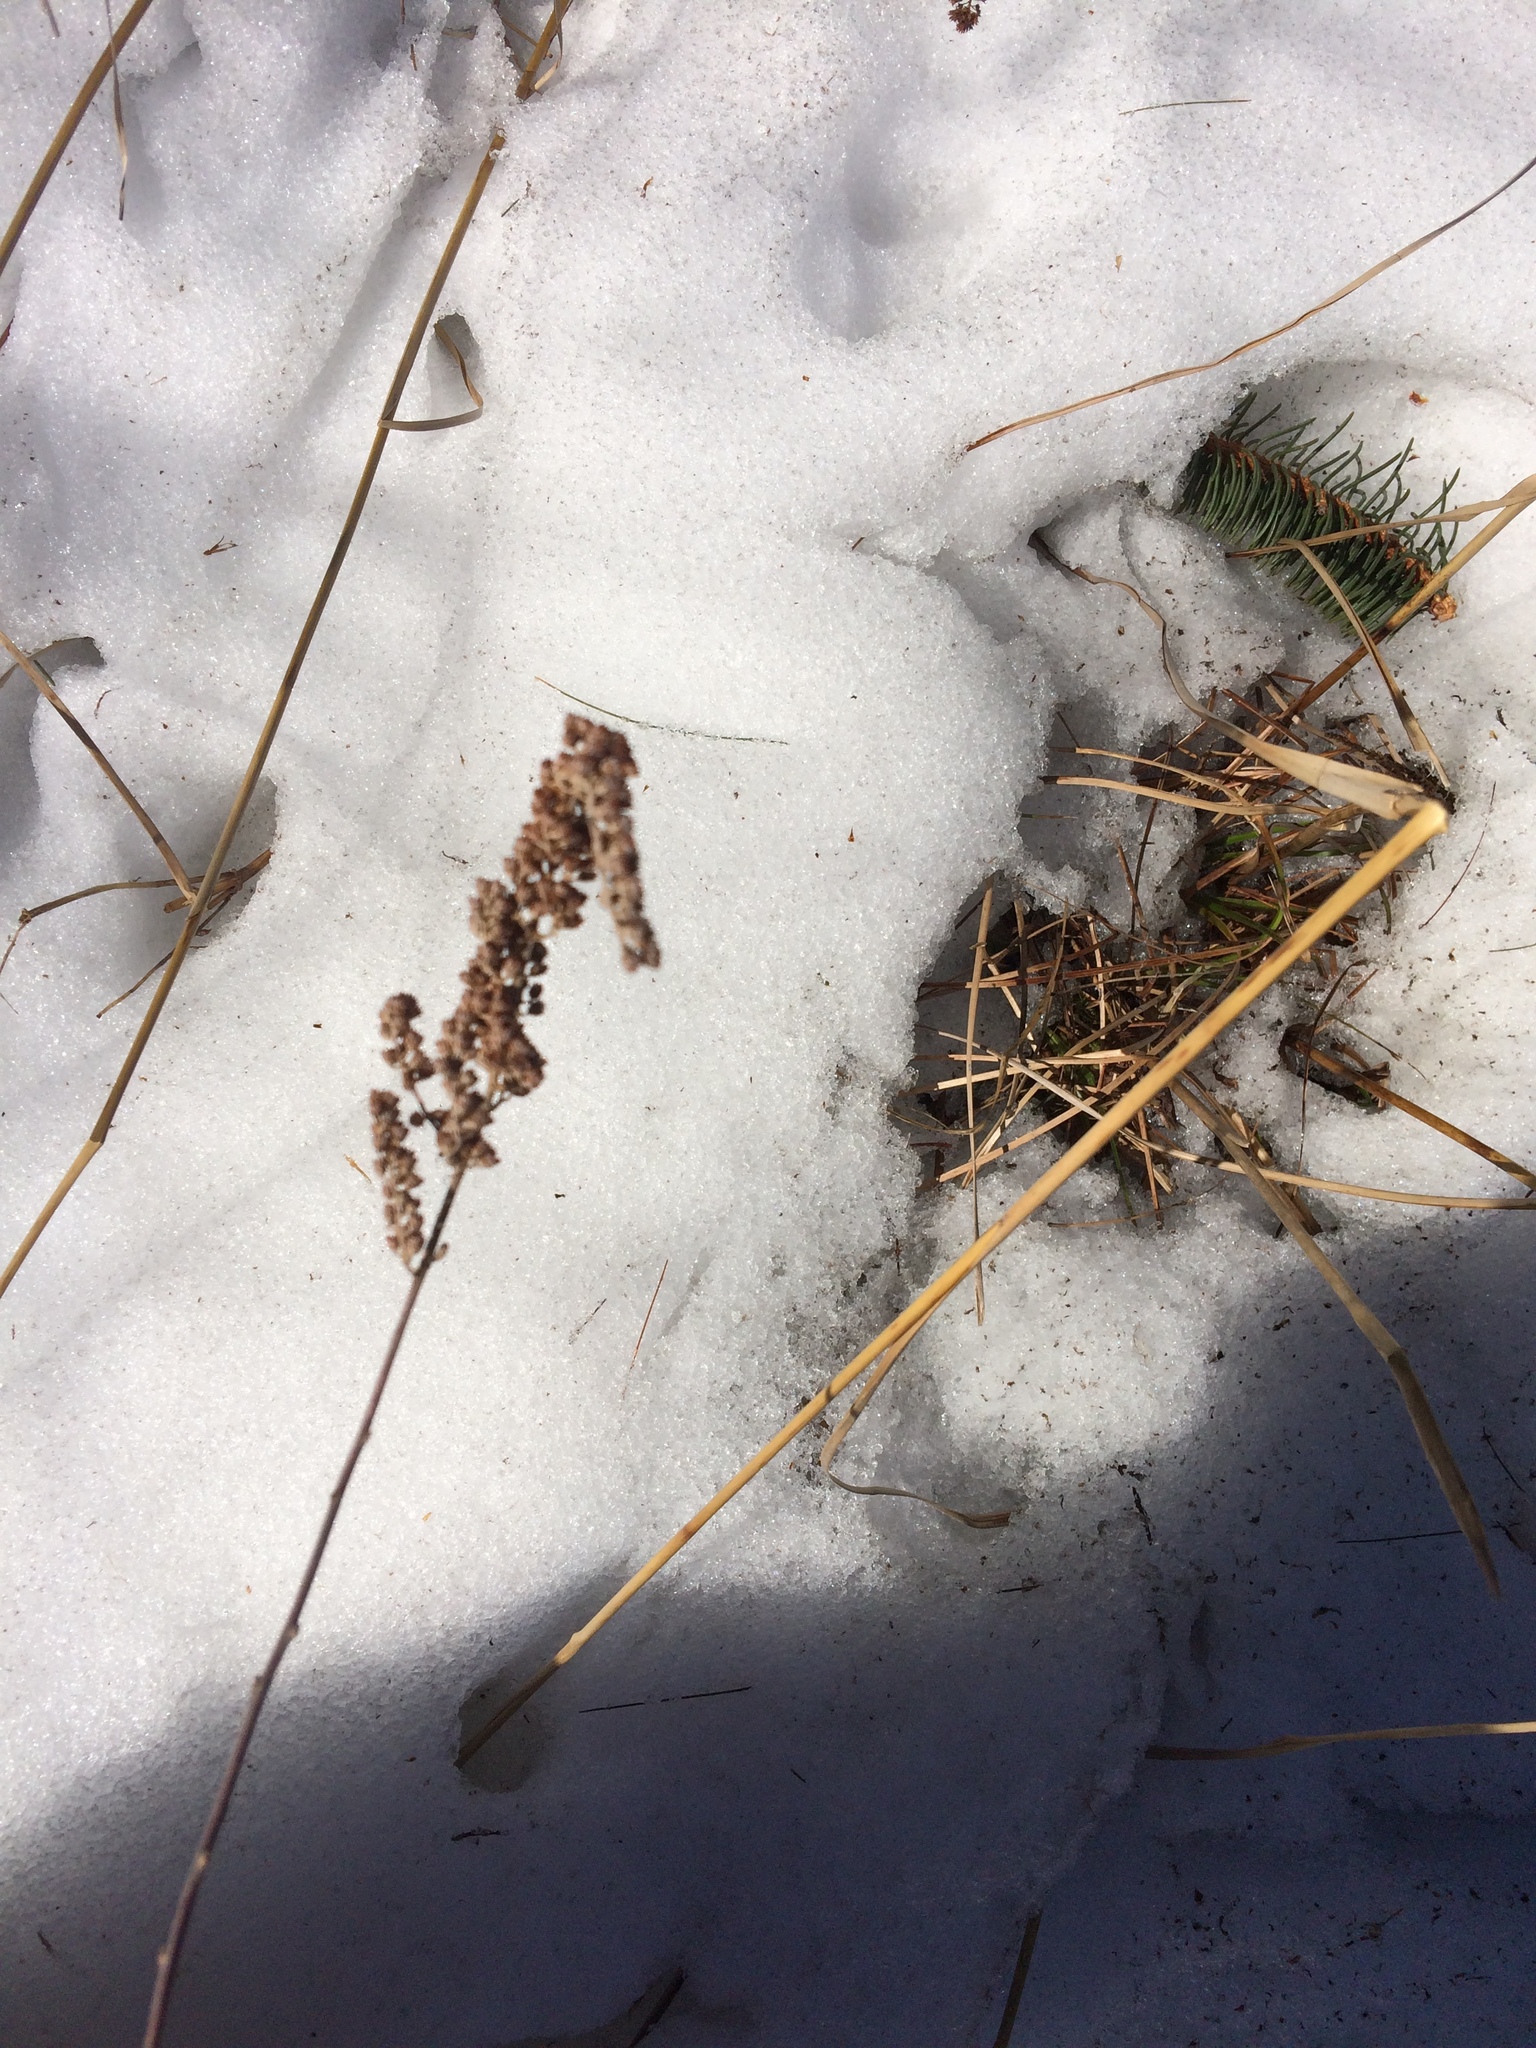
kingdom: Plantae
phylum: Tracheophyta
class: Magnoliopsida
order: Rosales
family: Rosaceae
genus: Spiraea
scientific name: Spiraea tomentosa
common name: Hardhack
